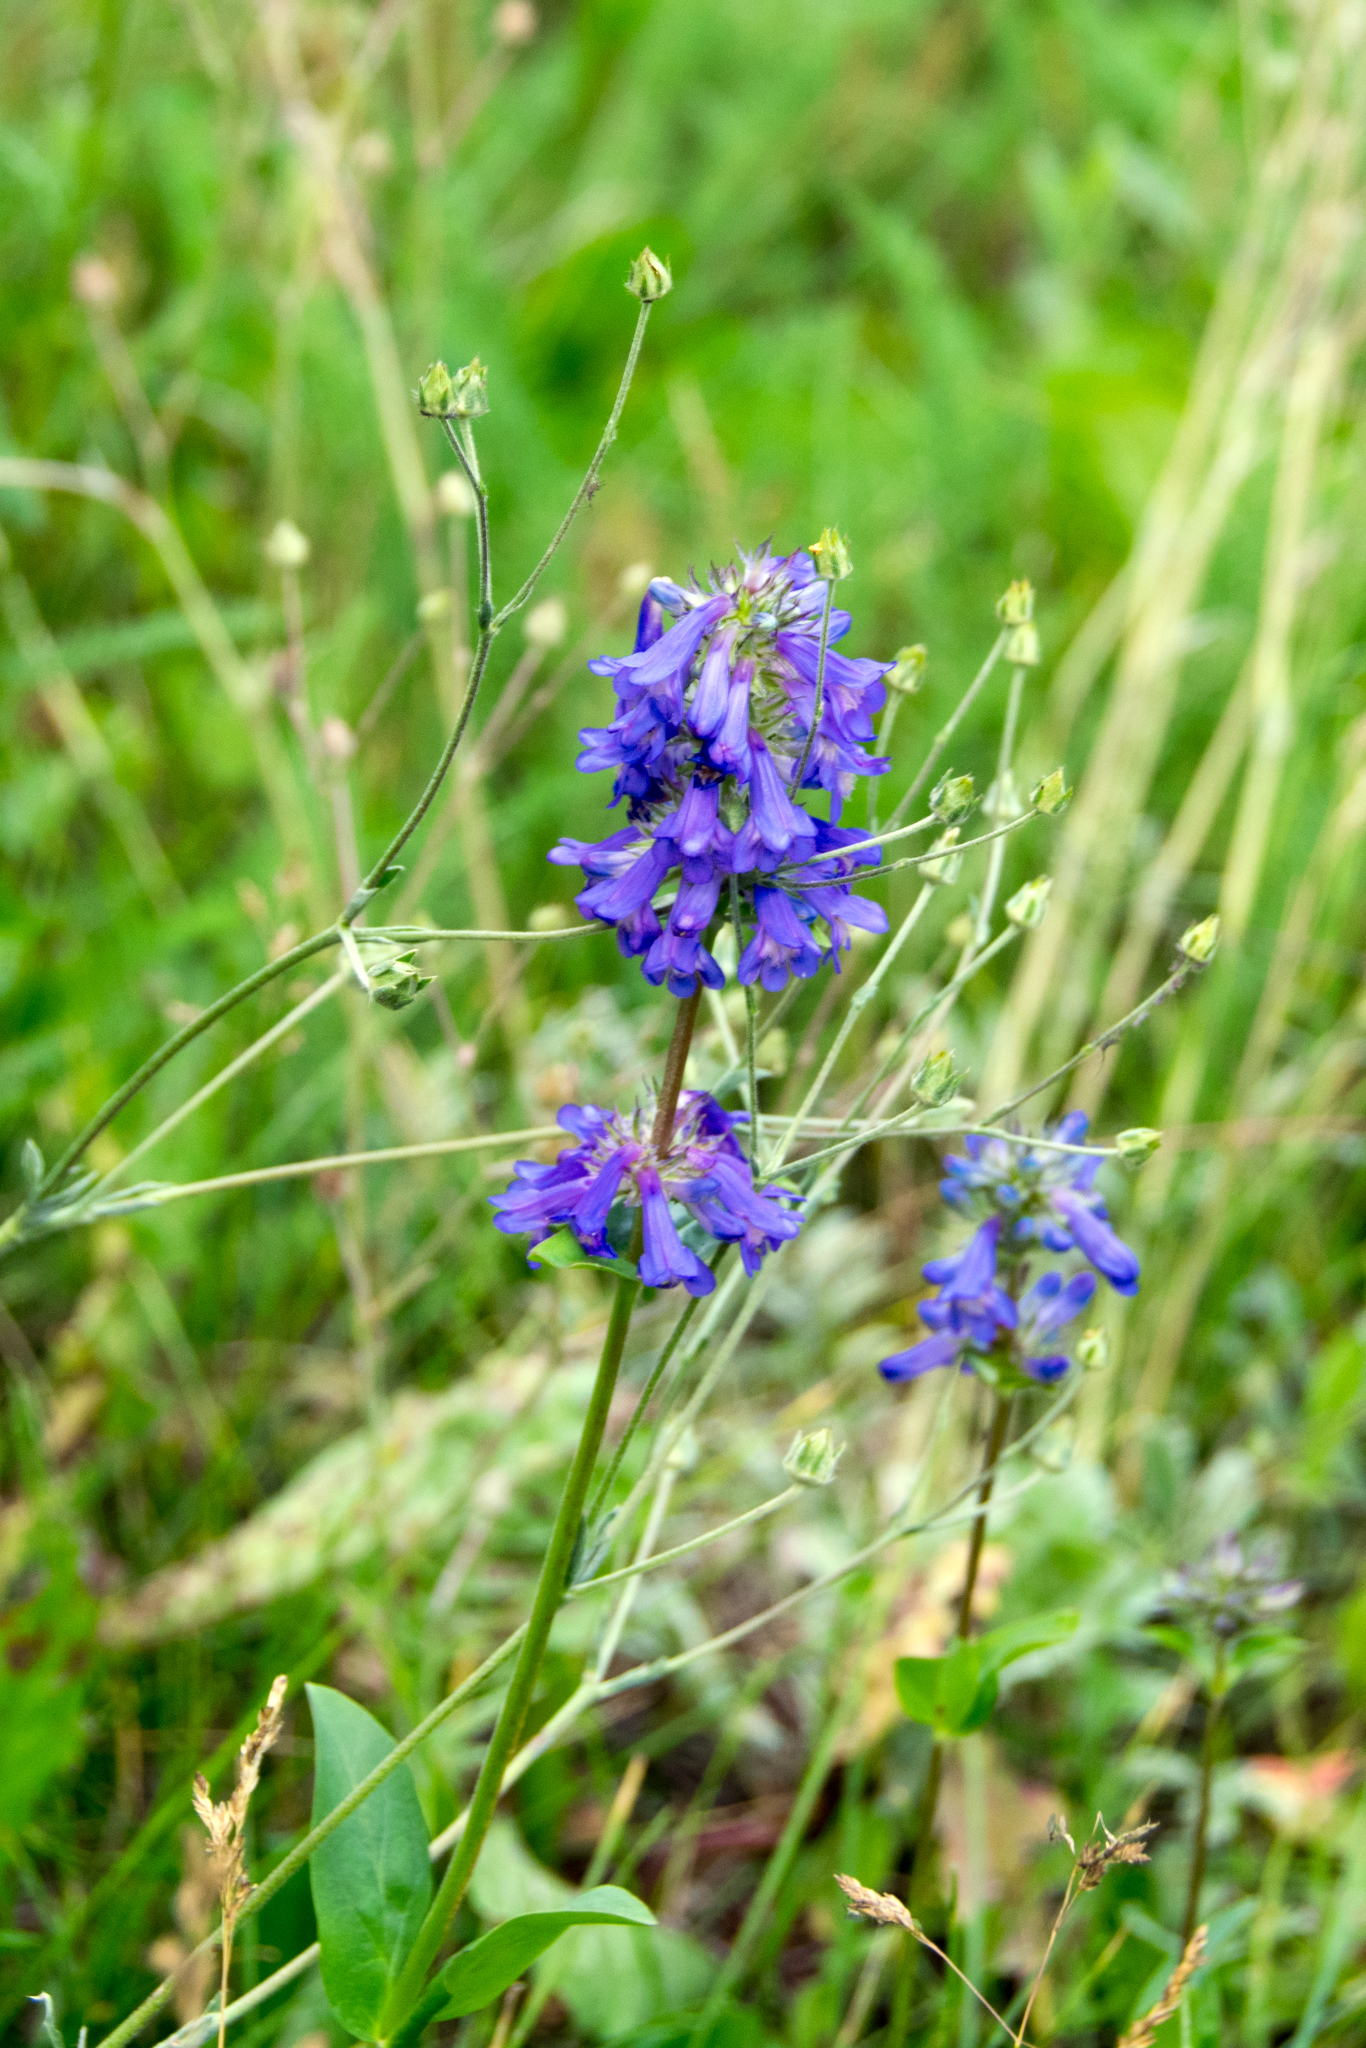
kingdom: Plantae
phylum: Tracheophyta
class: Magnoliopsida
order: Lamiales
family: Plantaginaceae
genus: Penstemon
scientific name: Penstemon rydbergii
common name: Rydberg's beardtongue
